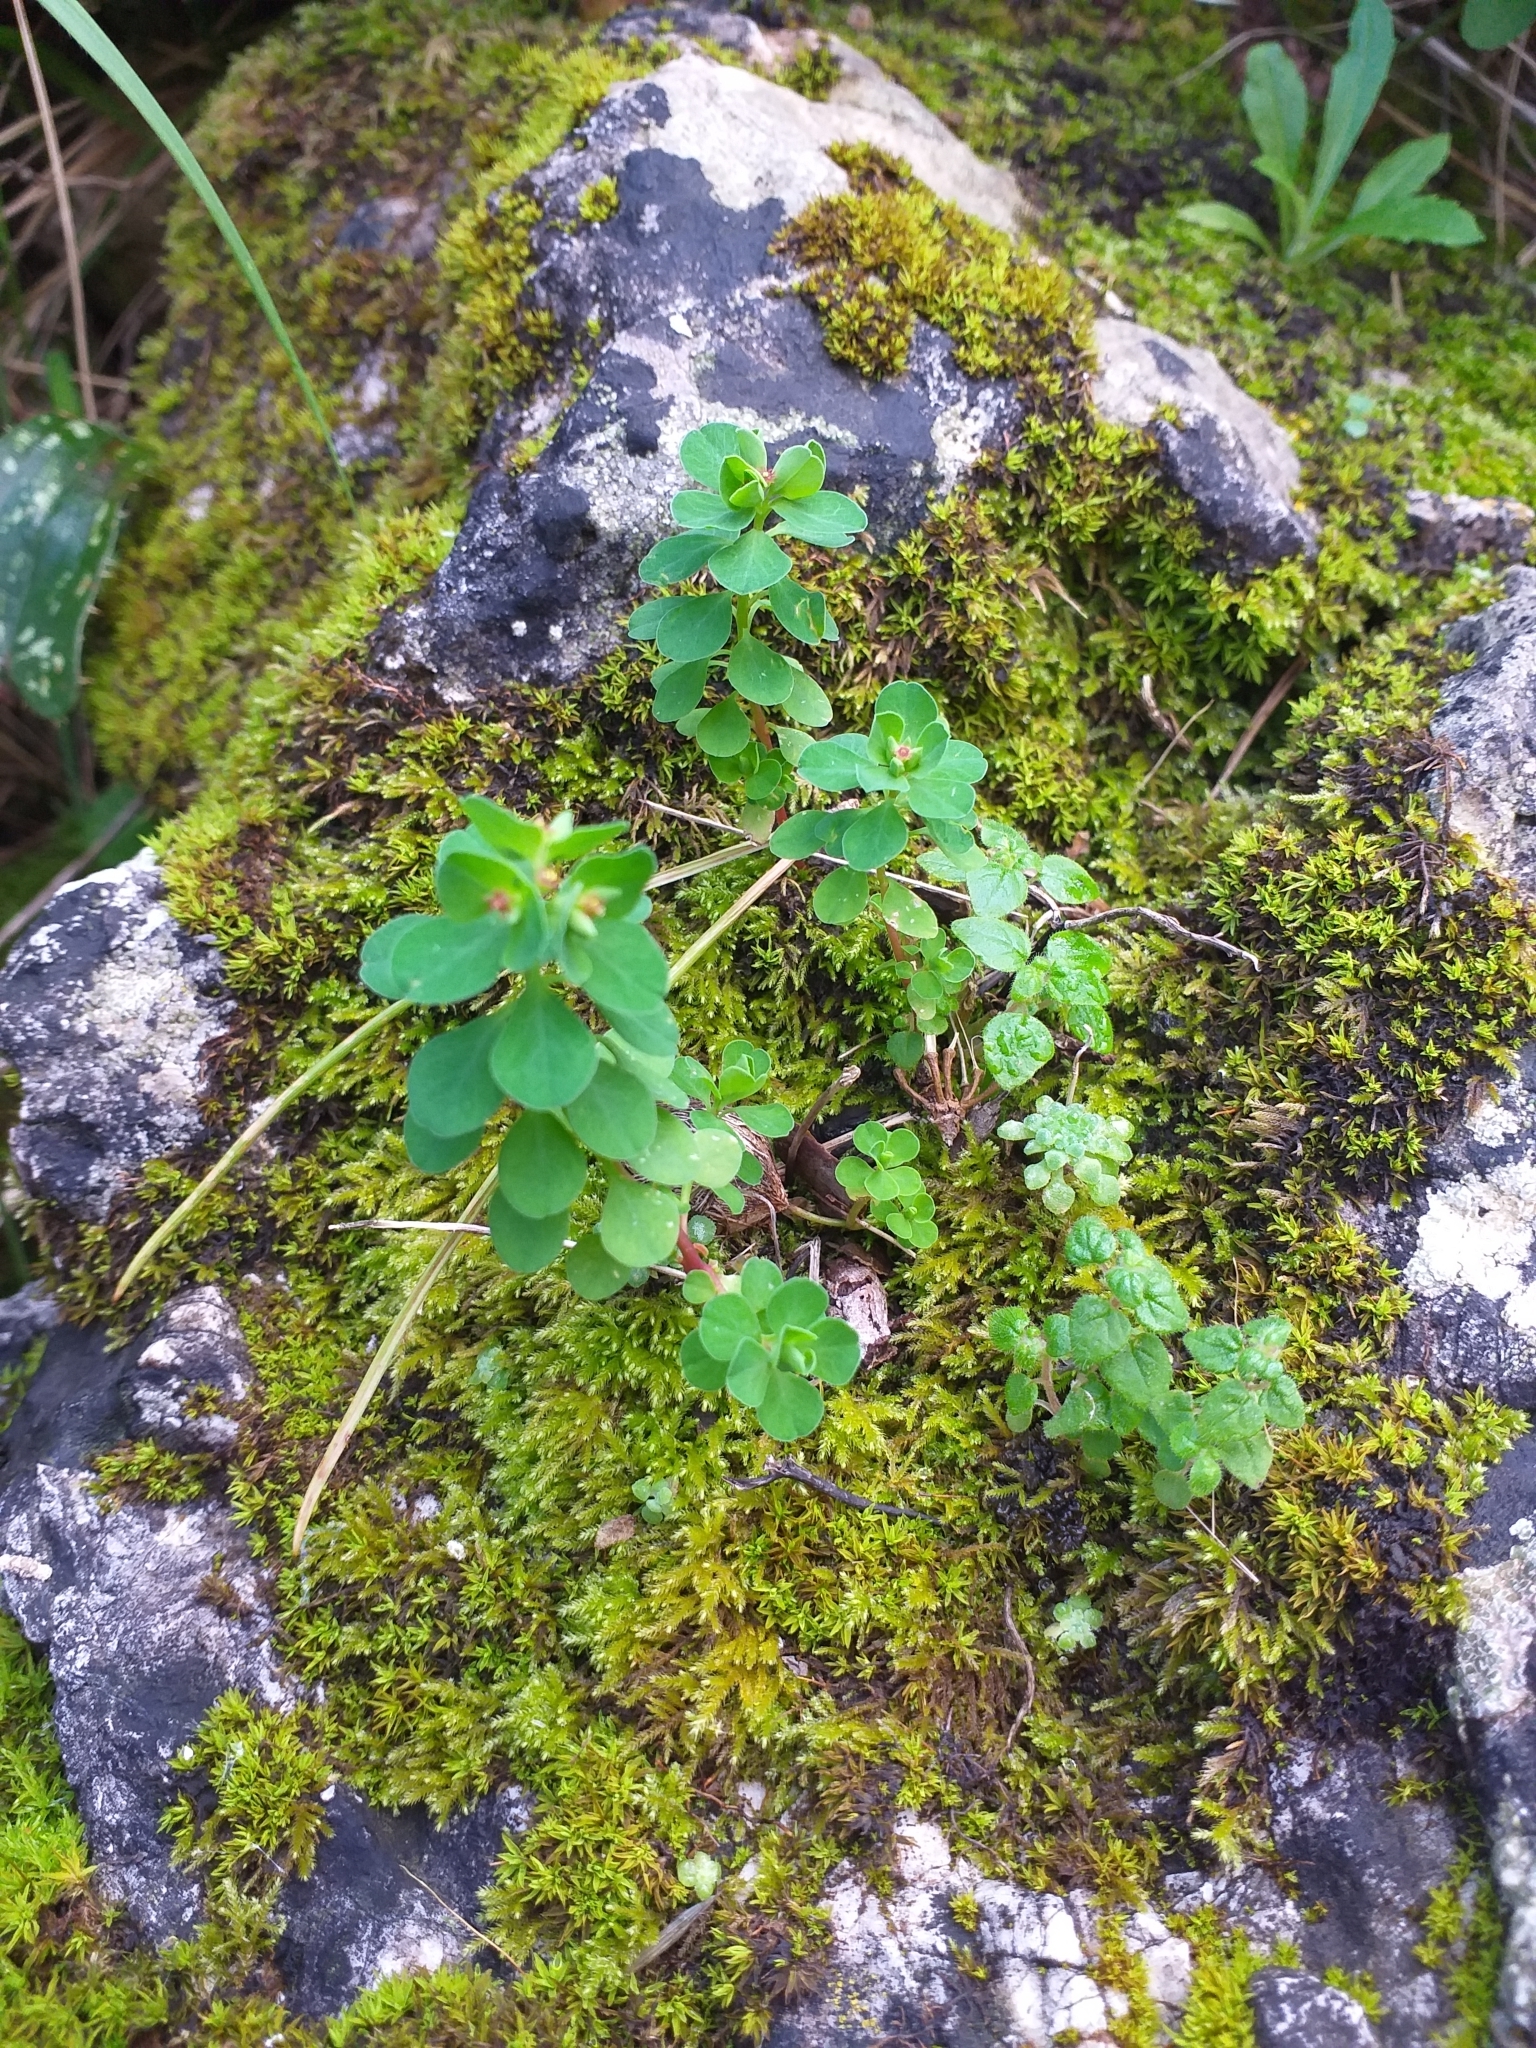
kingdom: Plantae
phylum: Tracheophyta
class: Magnoliopsida
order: Malpighiales
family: Euphorbiaceae
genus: Euphorbia
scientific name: Euphorbia peplus
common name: Petty spurge
